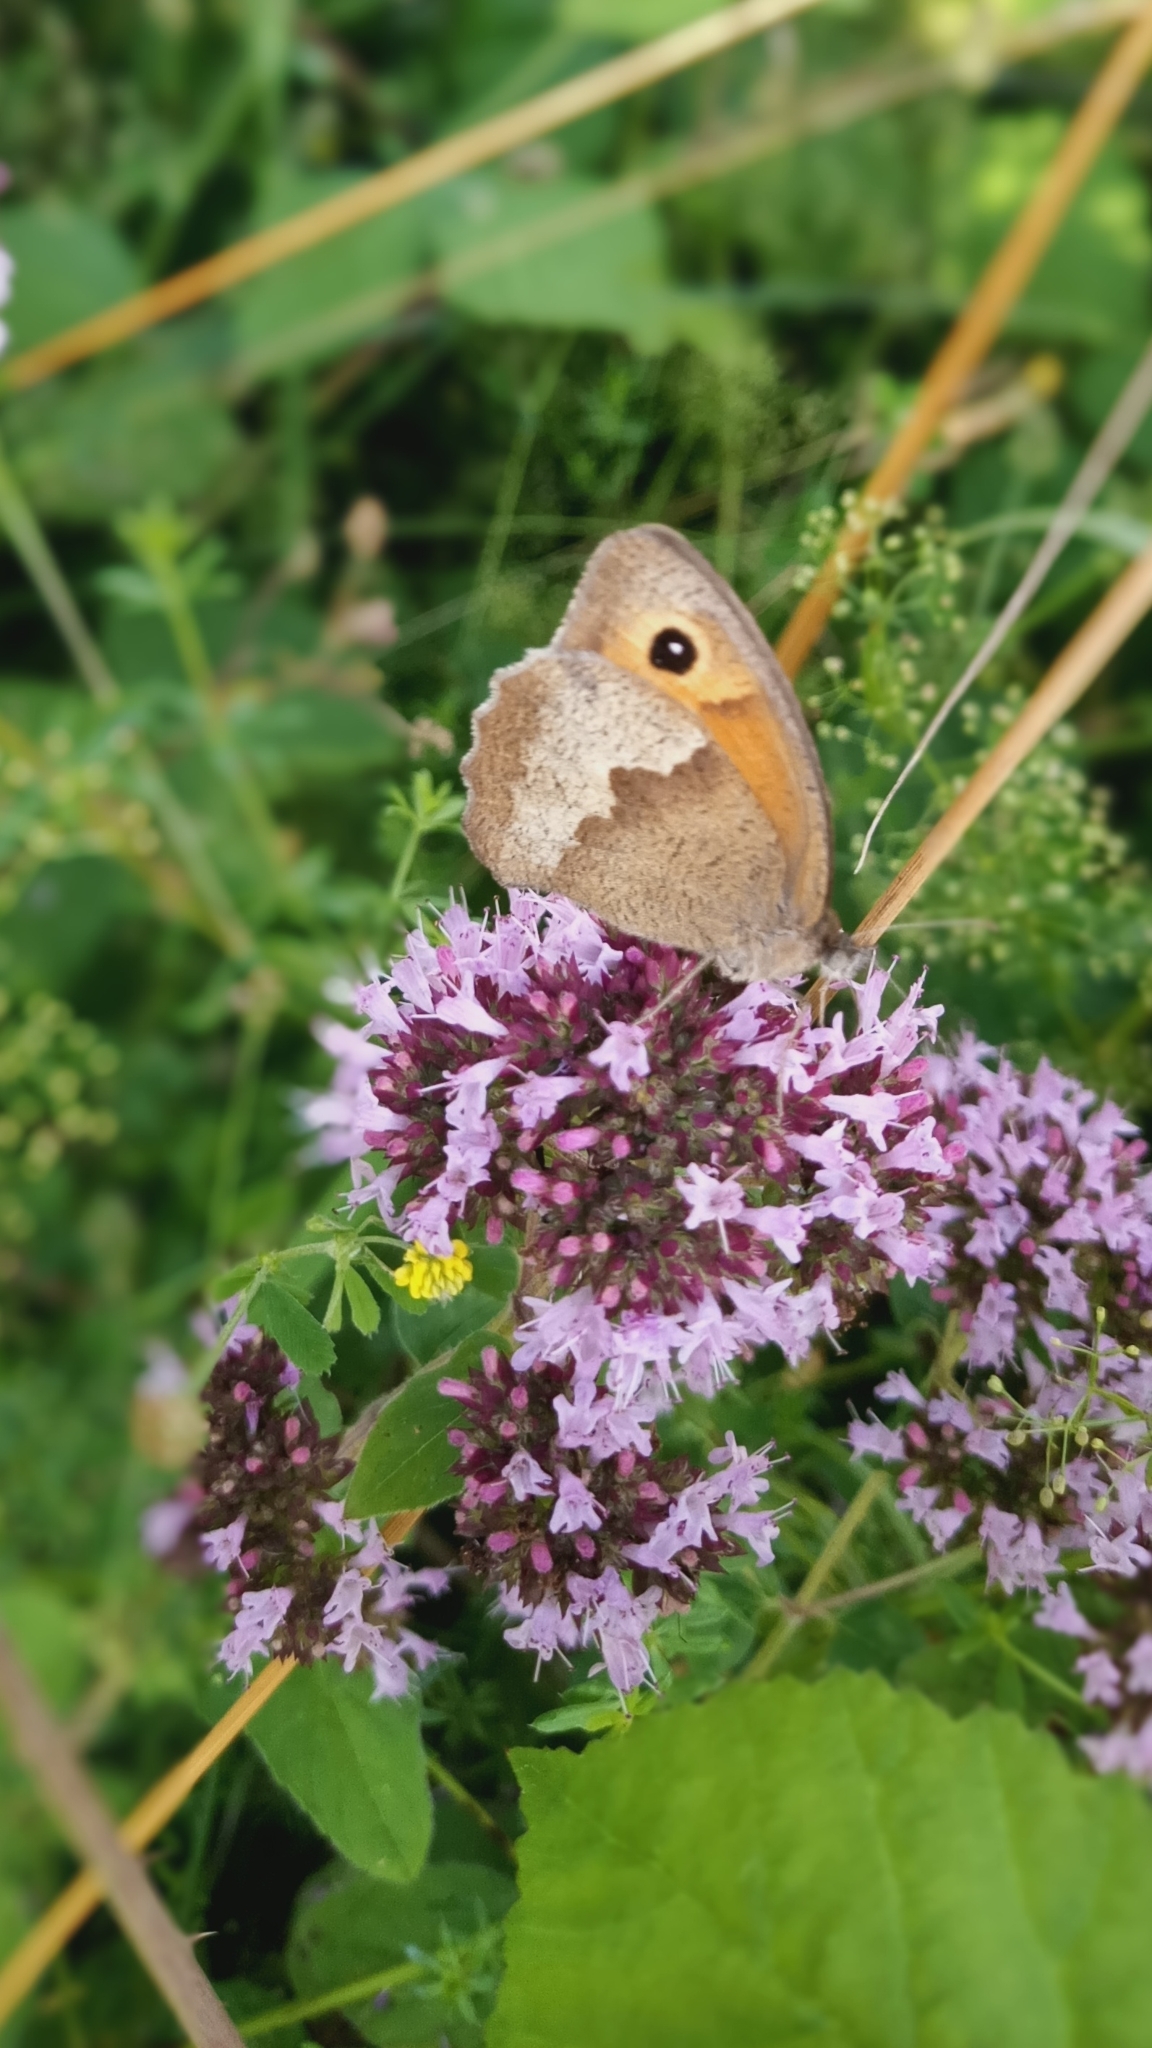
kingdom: Animalia
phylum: Arthropoda
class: Insecta
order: Lepidoptera
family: Nymphalidae
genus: Maniola
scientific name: Maniola jurtina
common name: Meadow brown
